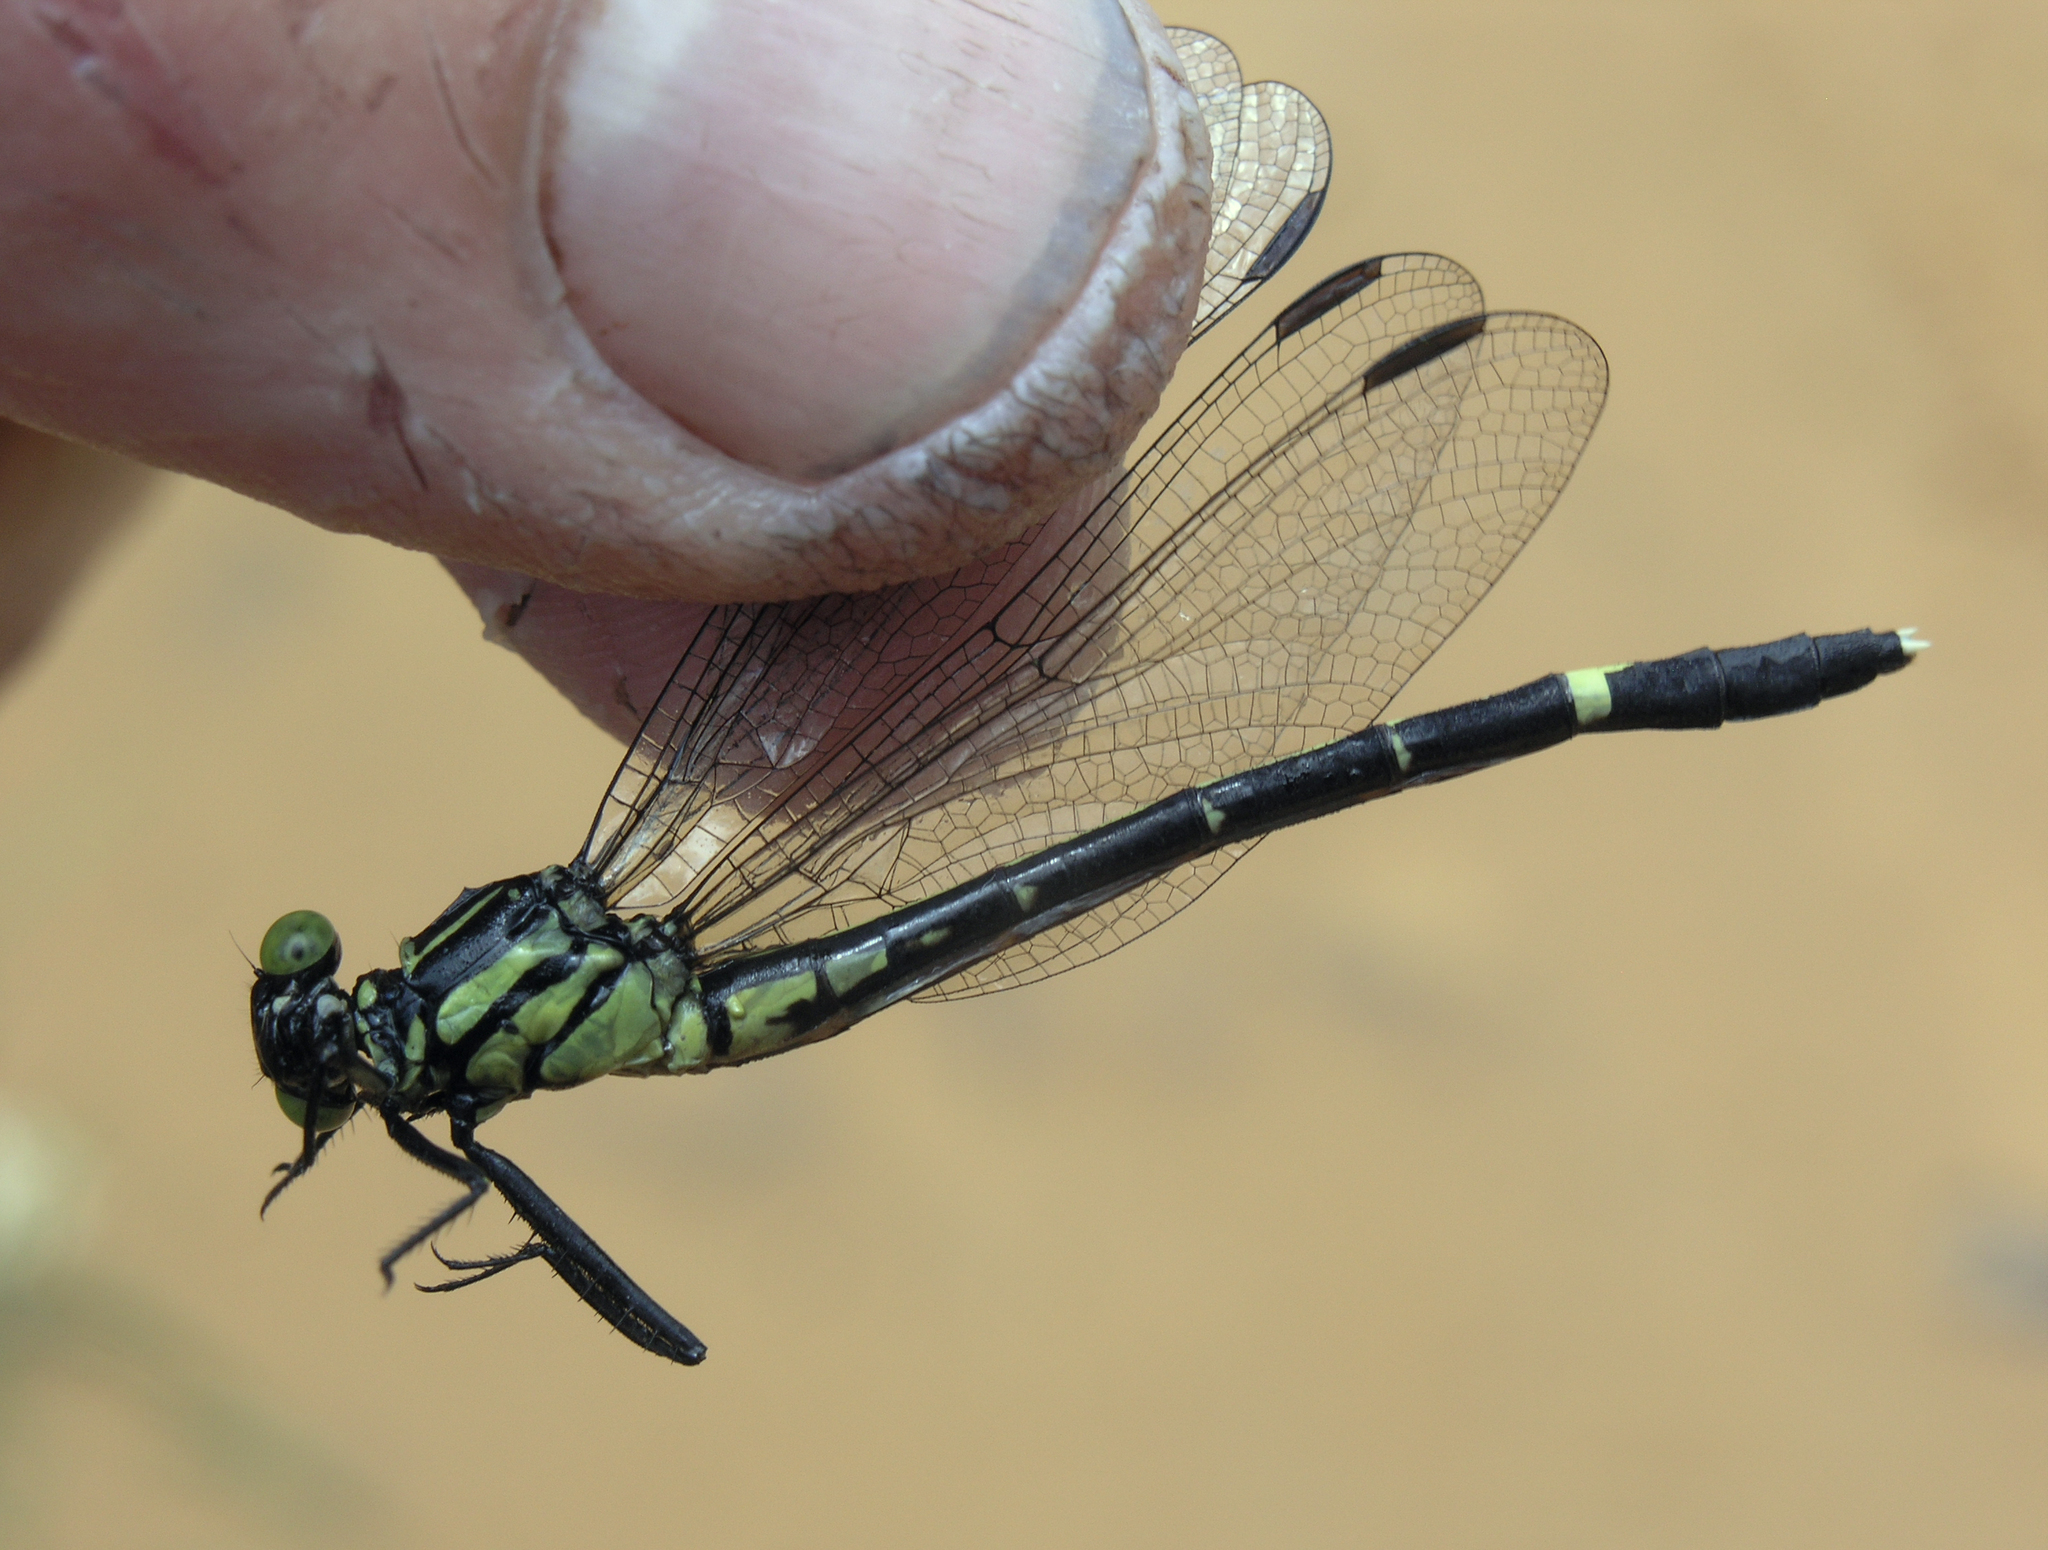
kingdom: Animalia
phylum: Arthropoda
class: Insecta
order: Odonata
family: Gomphidae
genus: Euthygomphus
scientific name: Euthygomphus yunnanensis
